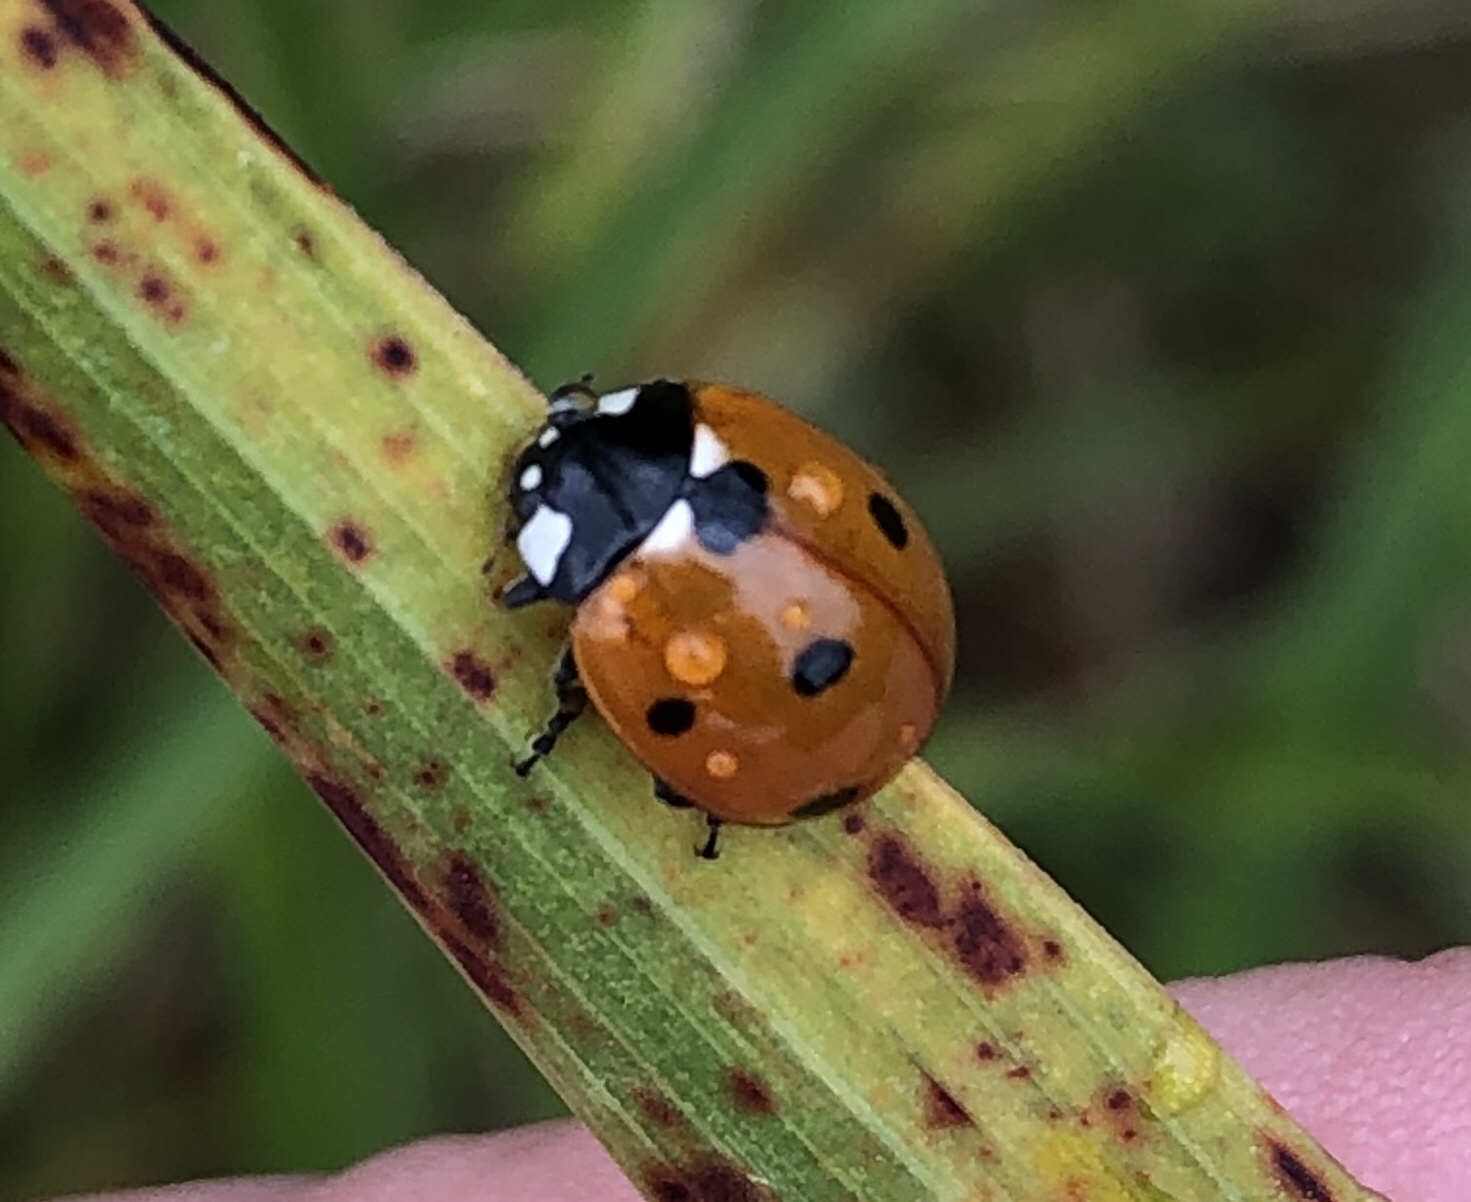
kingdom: Animalia
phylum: Arthropoda
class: Insecta
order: Coleoptera
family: Coccinellidae
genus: Coccinella
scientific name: Coccinella septempunctata
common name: Sevenspotted lady beetle
